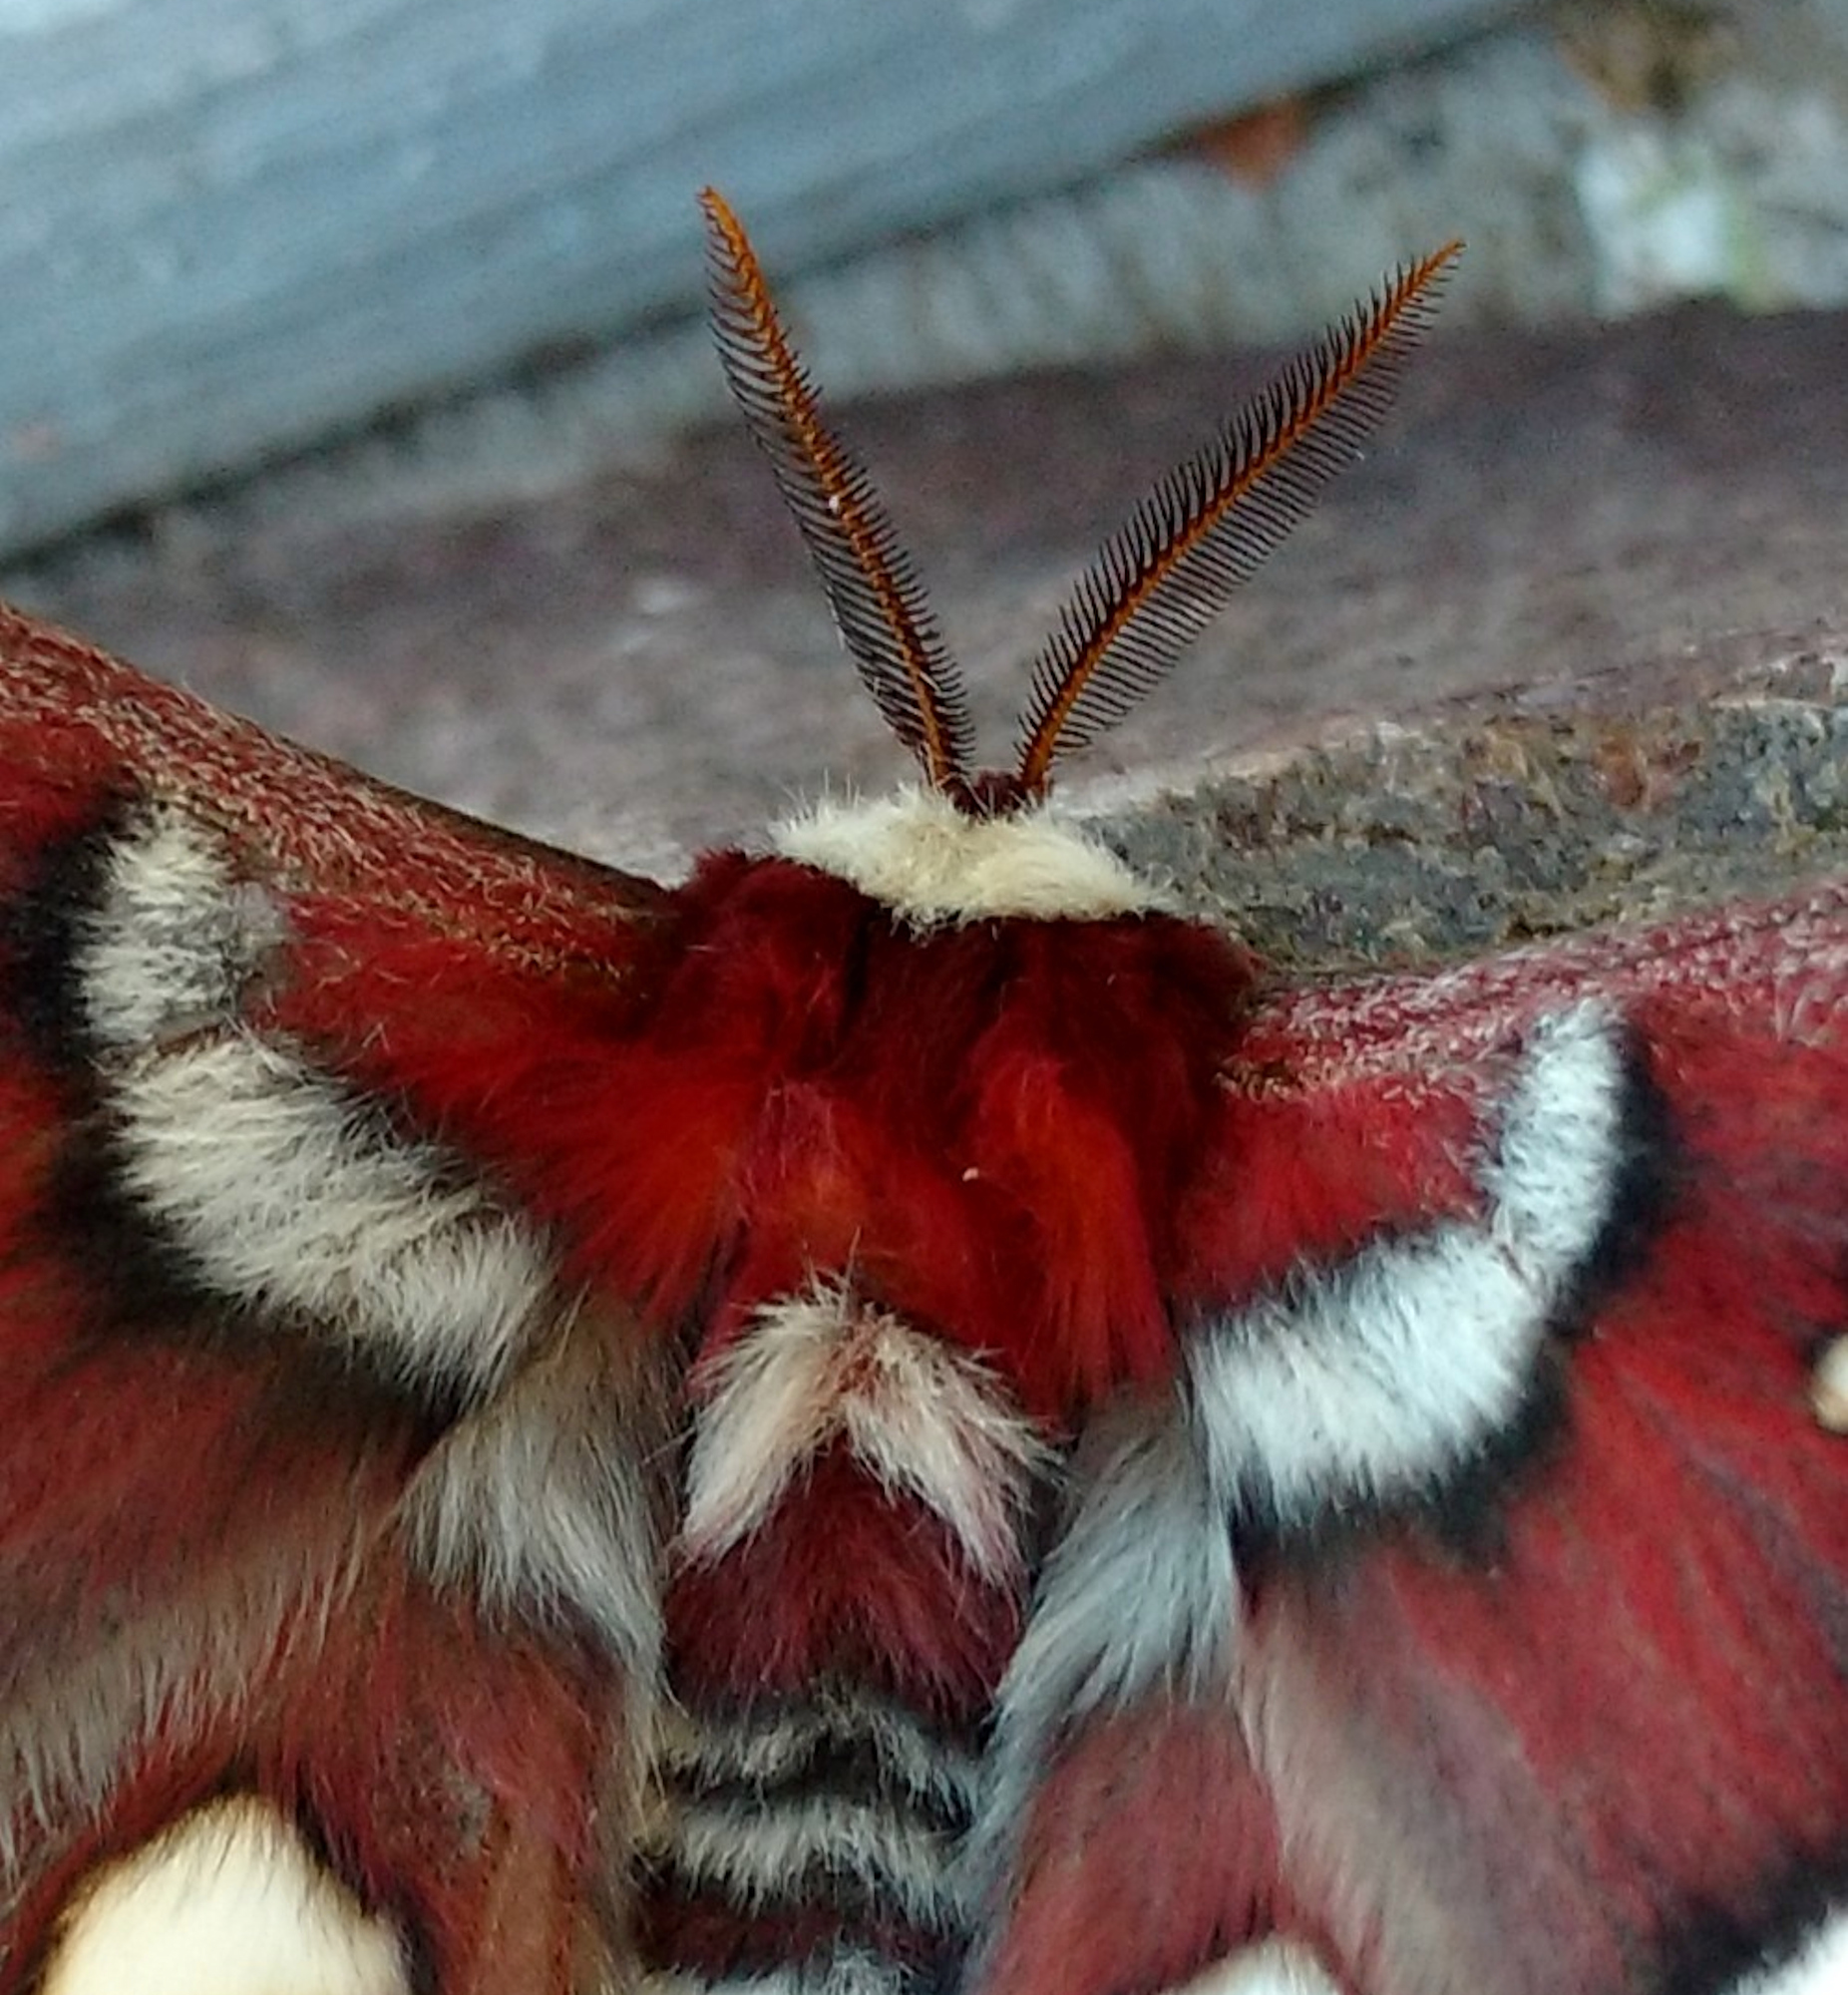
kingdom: Animalia
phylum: Arthropoda
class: Insecta
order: Lepidoptera
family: Saturniidae
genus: Hyalophora
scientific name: Hyalophora euryalus
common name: Ceanothus silkmoth
